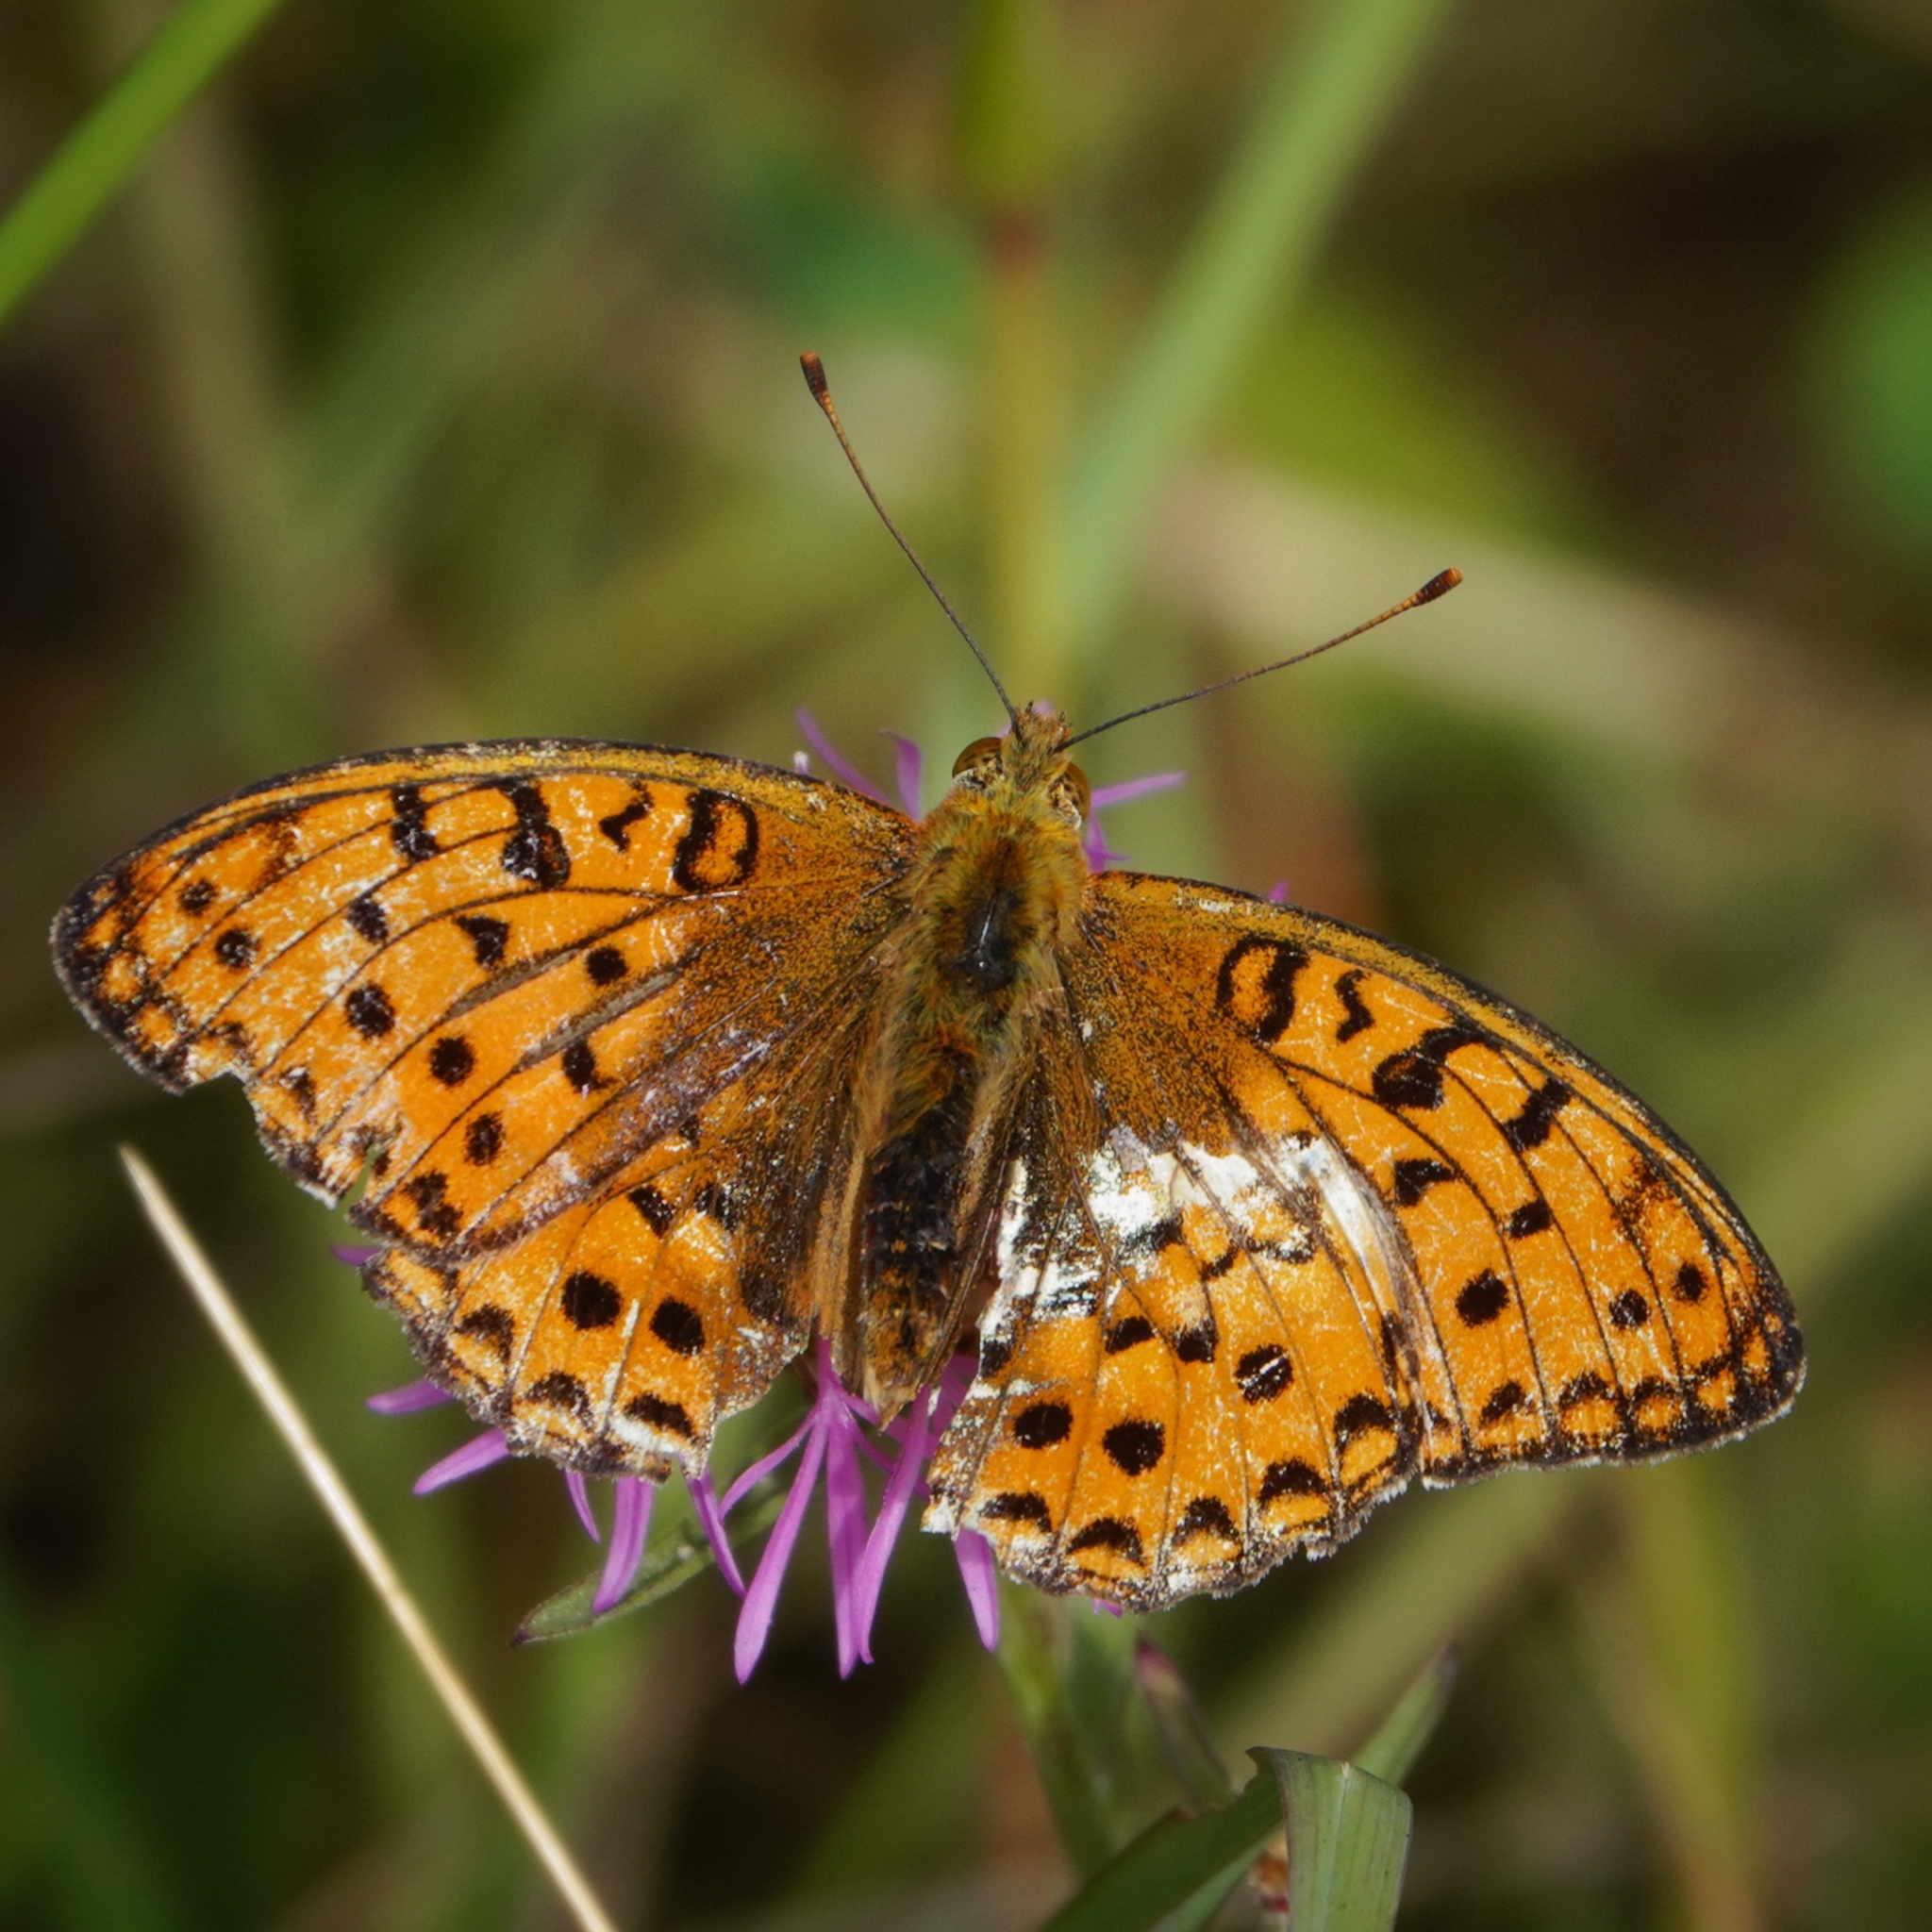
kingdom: Animalia
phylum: Arthropoda
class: Insecta
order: Lepidoptera
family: Nymphalidae
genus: Fabriciana
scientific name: Fabriciana adippe
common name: High brown fritillary
